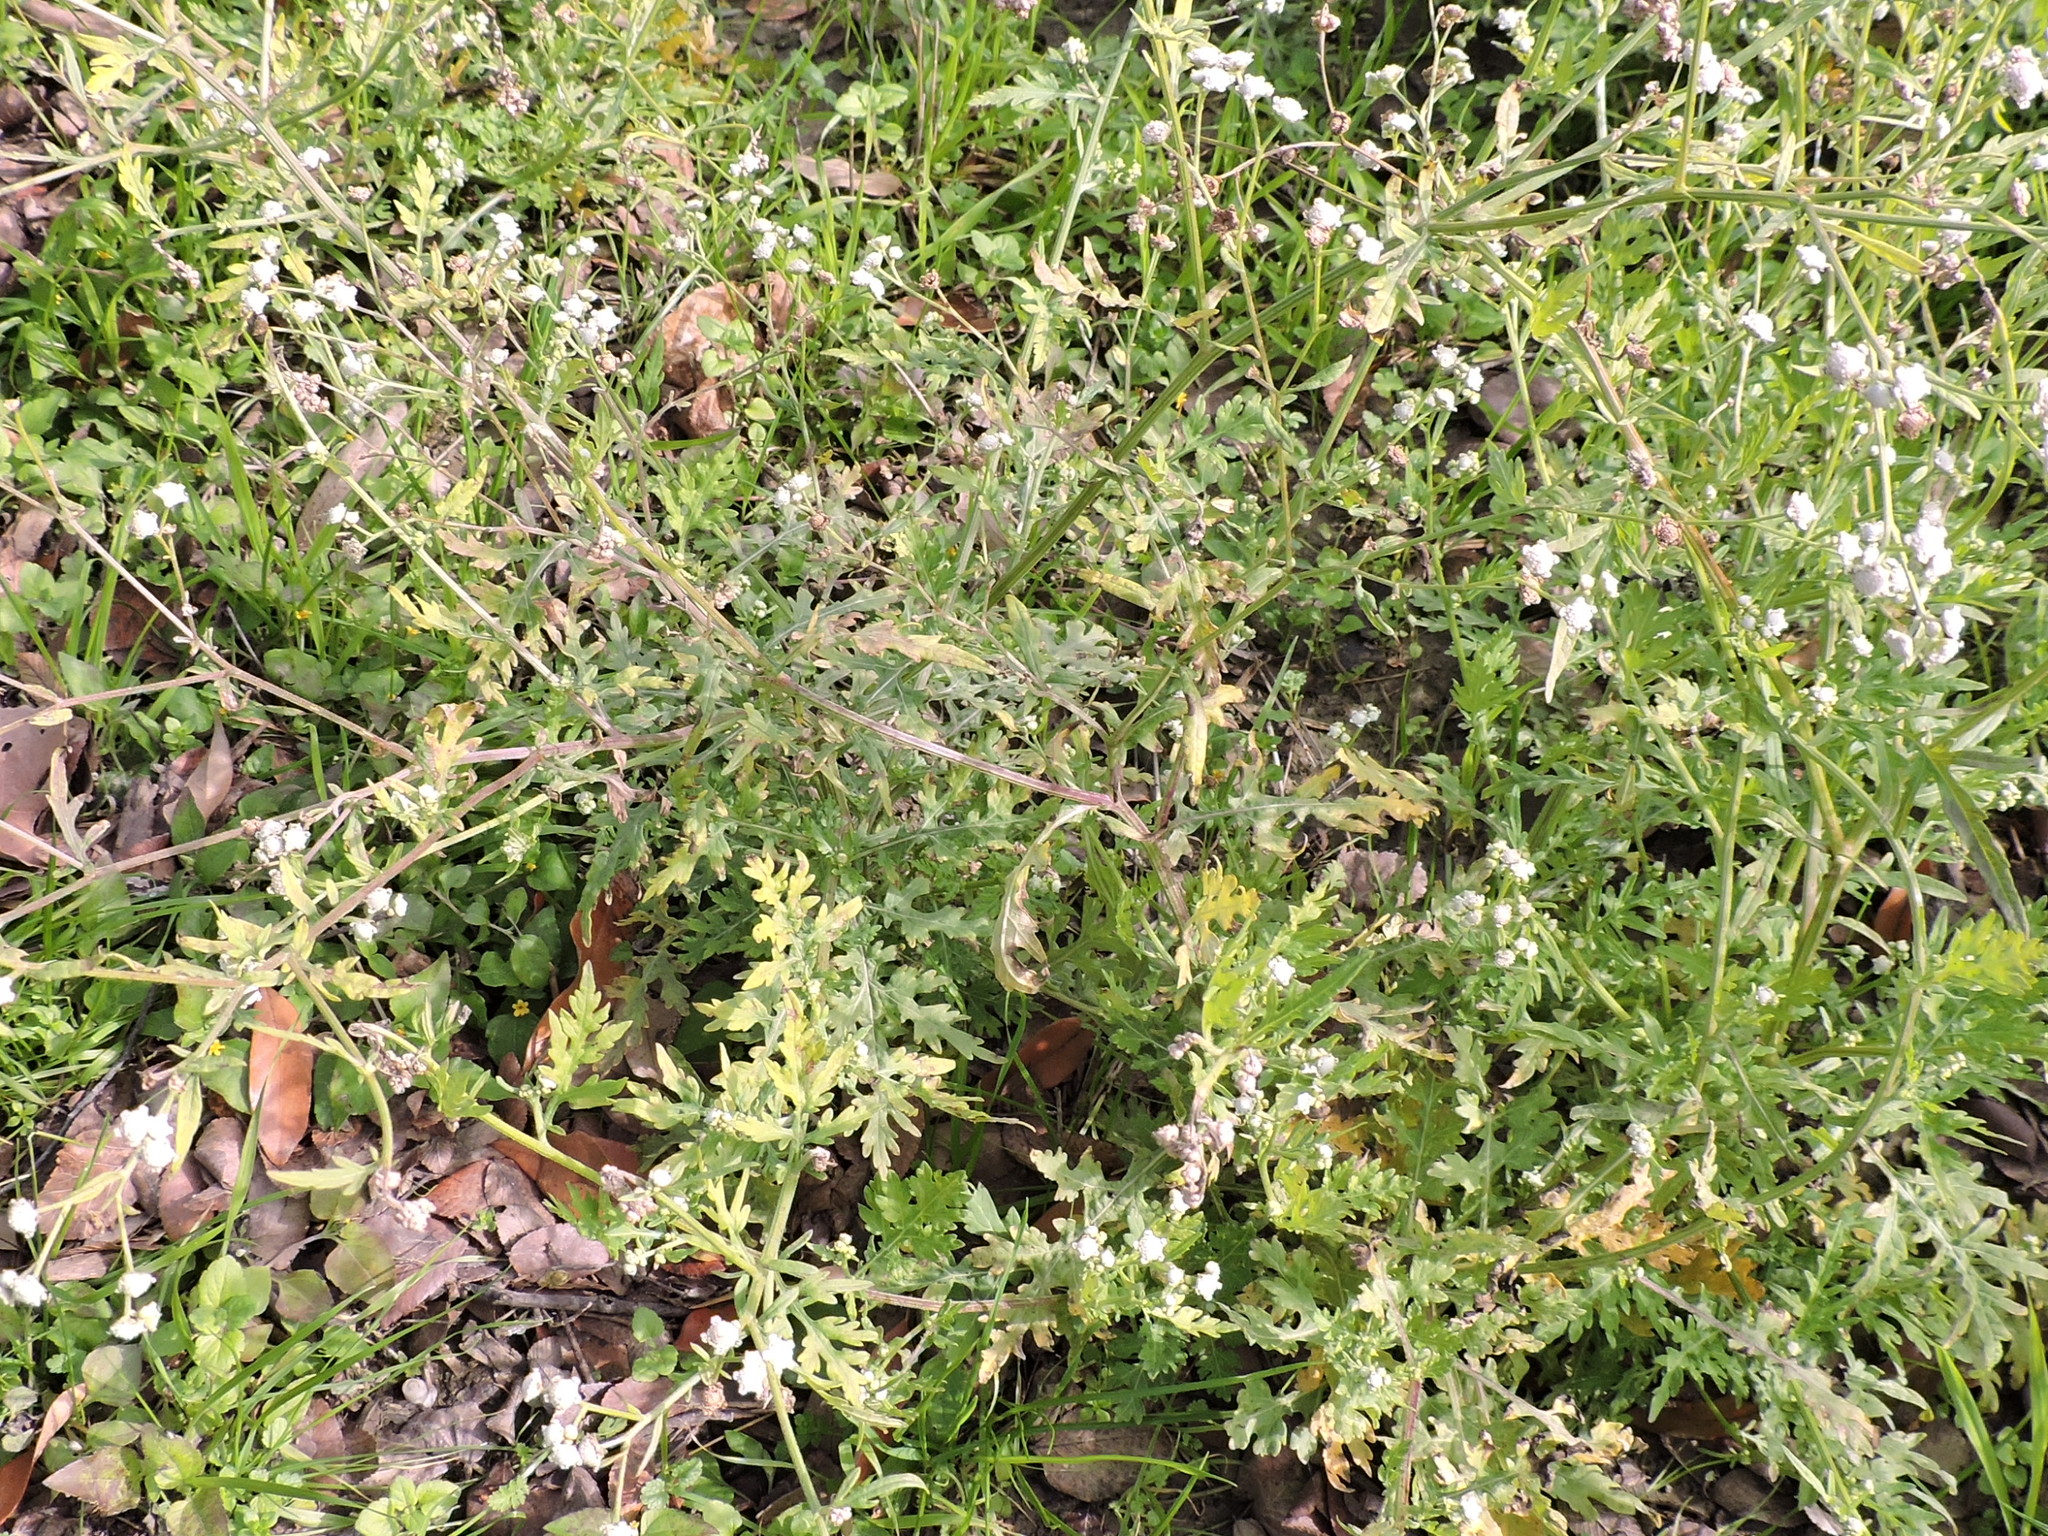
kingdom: Plantae
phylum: Tracheophyta
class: Magnoliopsida
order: Asterales
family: Asteraceae
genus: Parthenium
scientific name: Parthenium hysterophorus
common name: Santa maria feverfew
